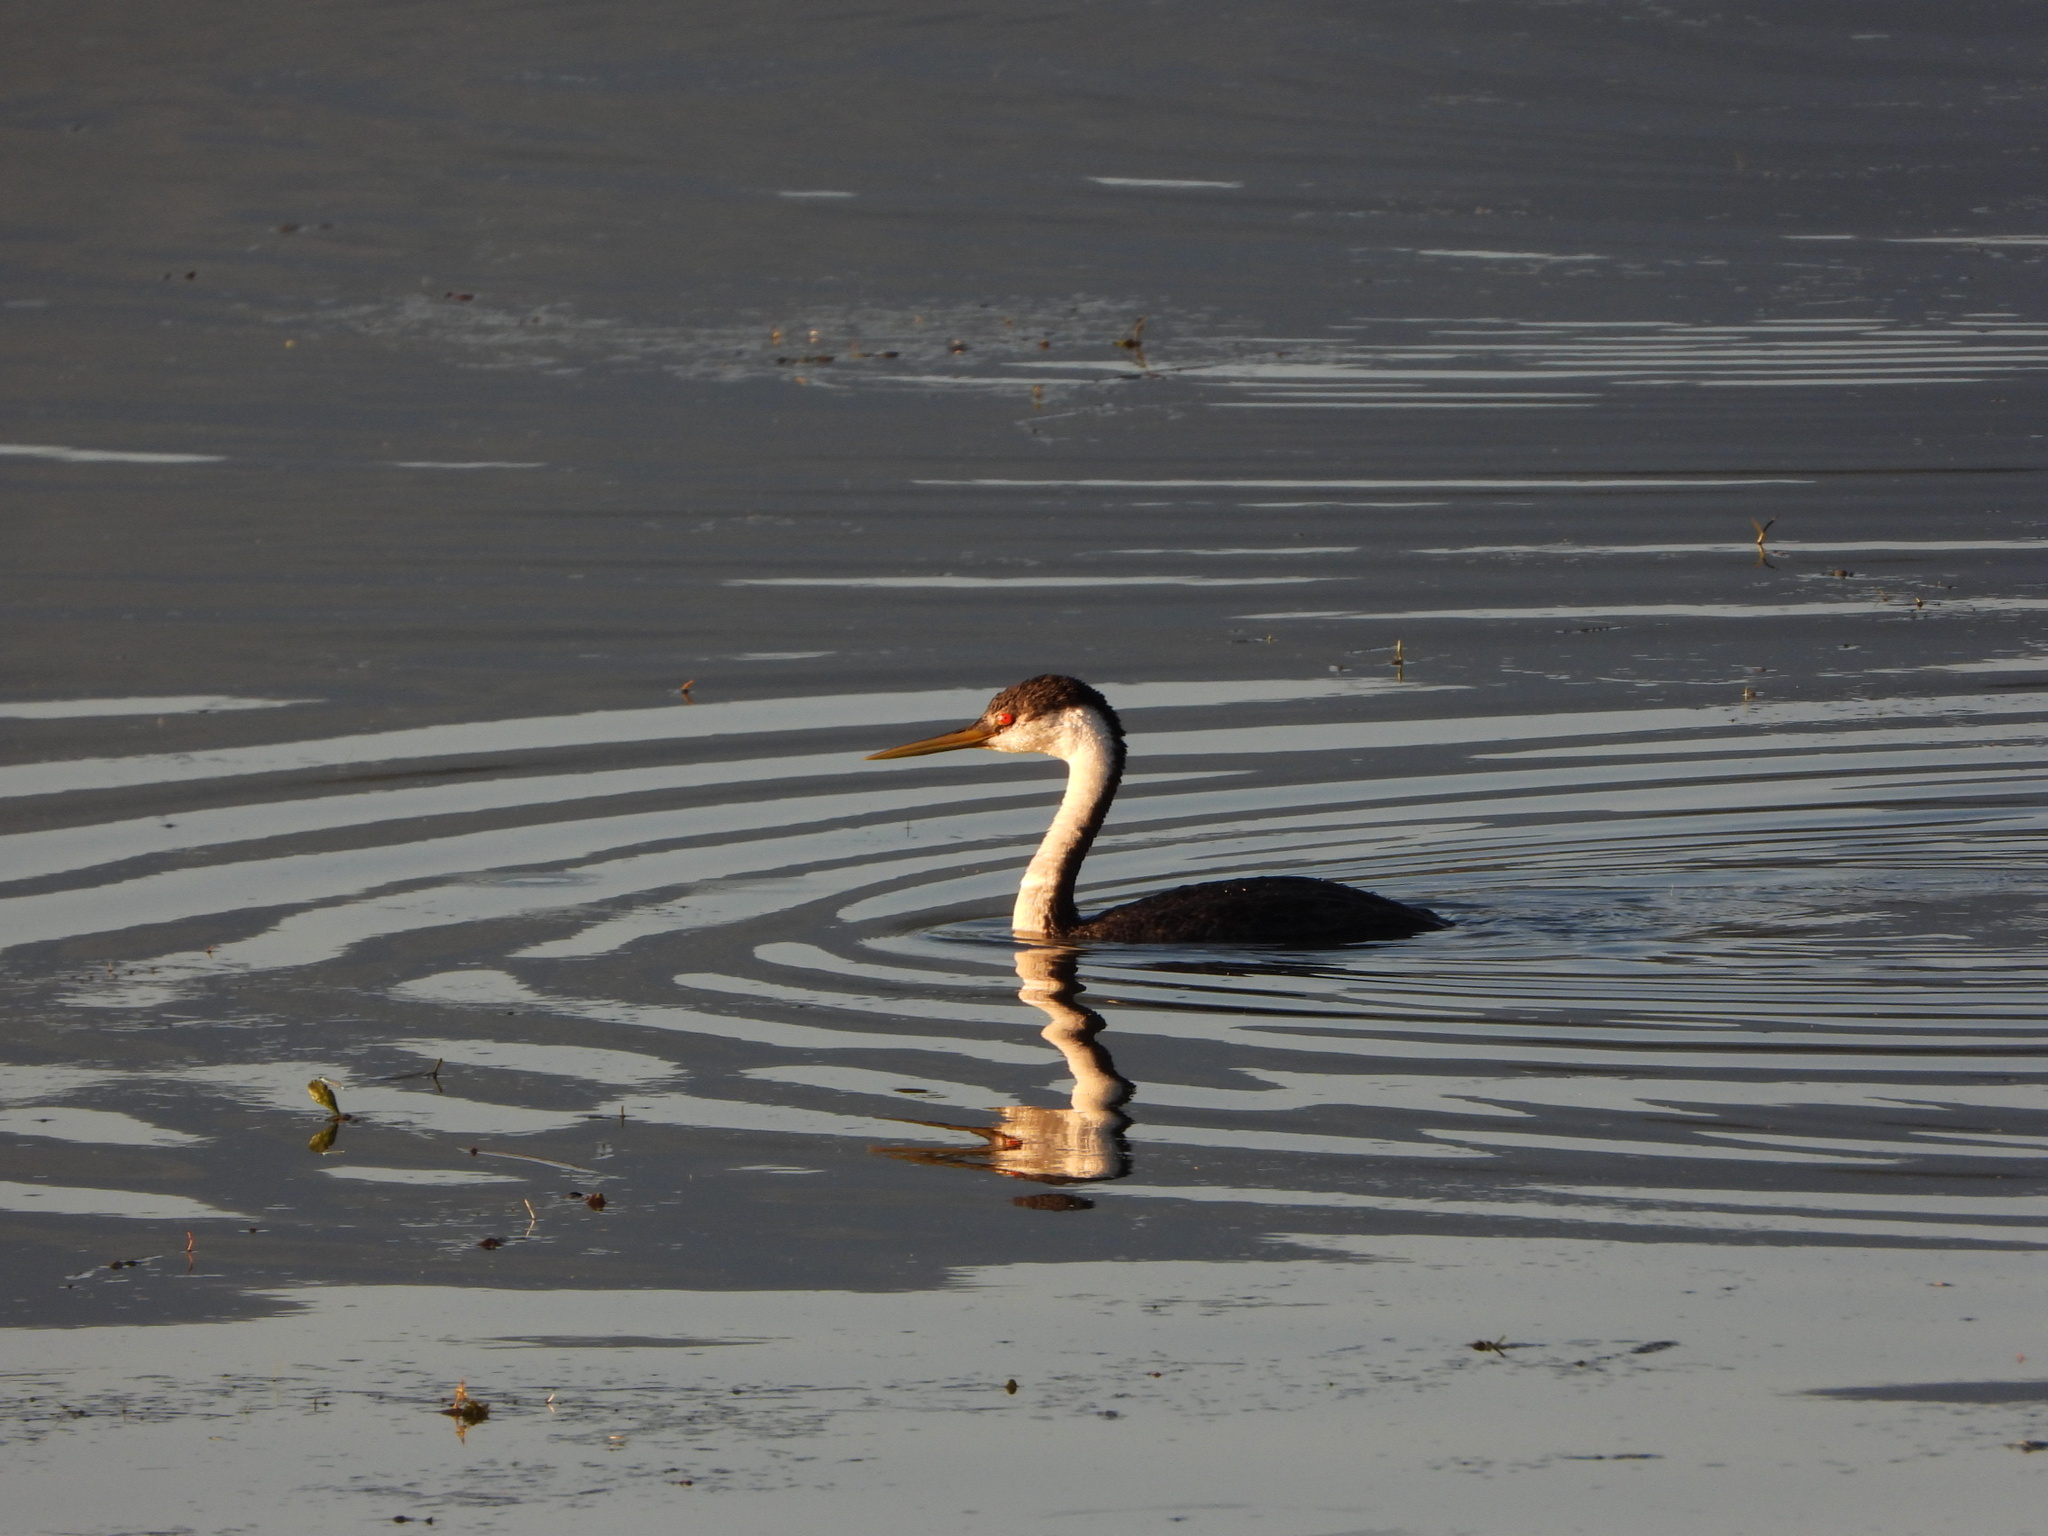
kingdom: Animalia
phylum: Chordata
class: Aves
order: Podicipediformes
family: Podicipedidae
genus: Aechmophorus
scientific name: Aechmophorus occidentalis
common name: Western grebe
